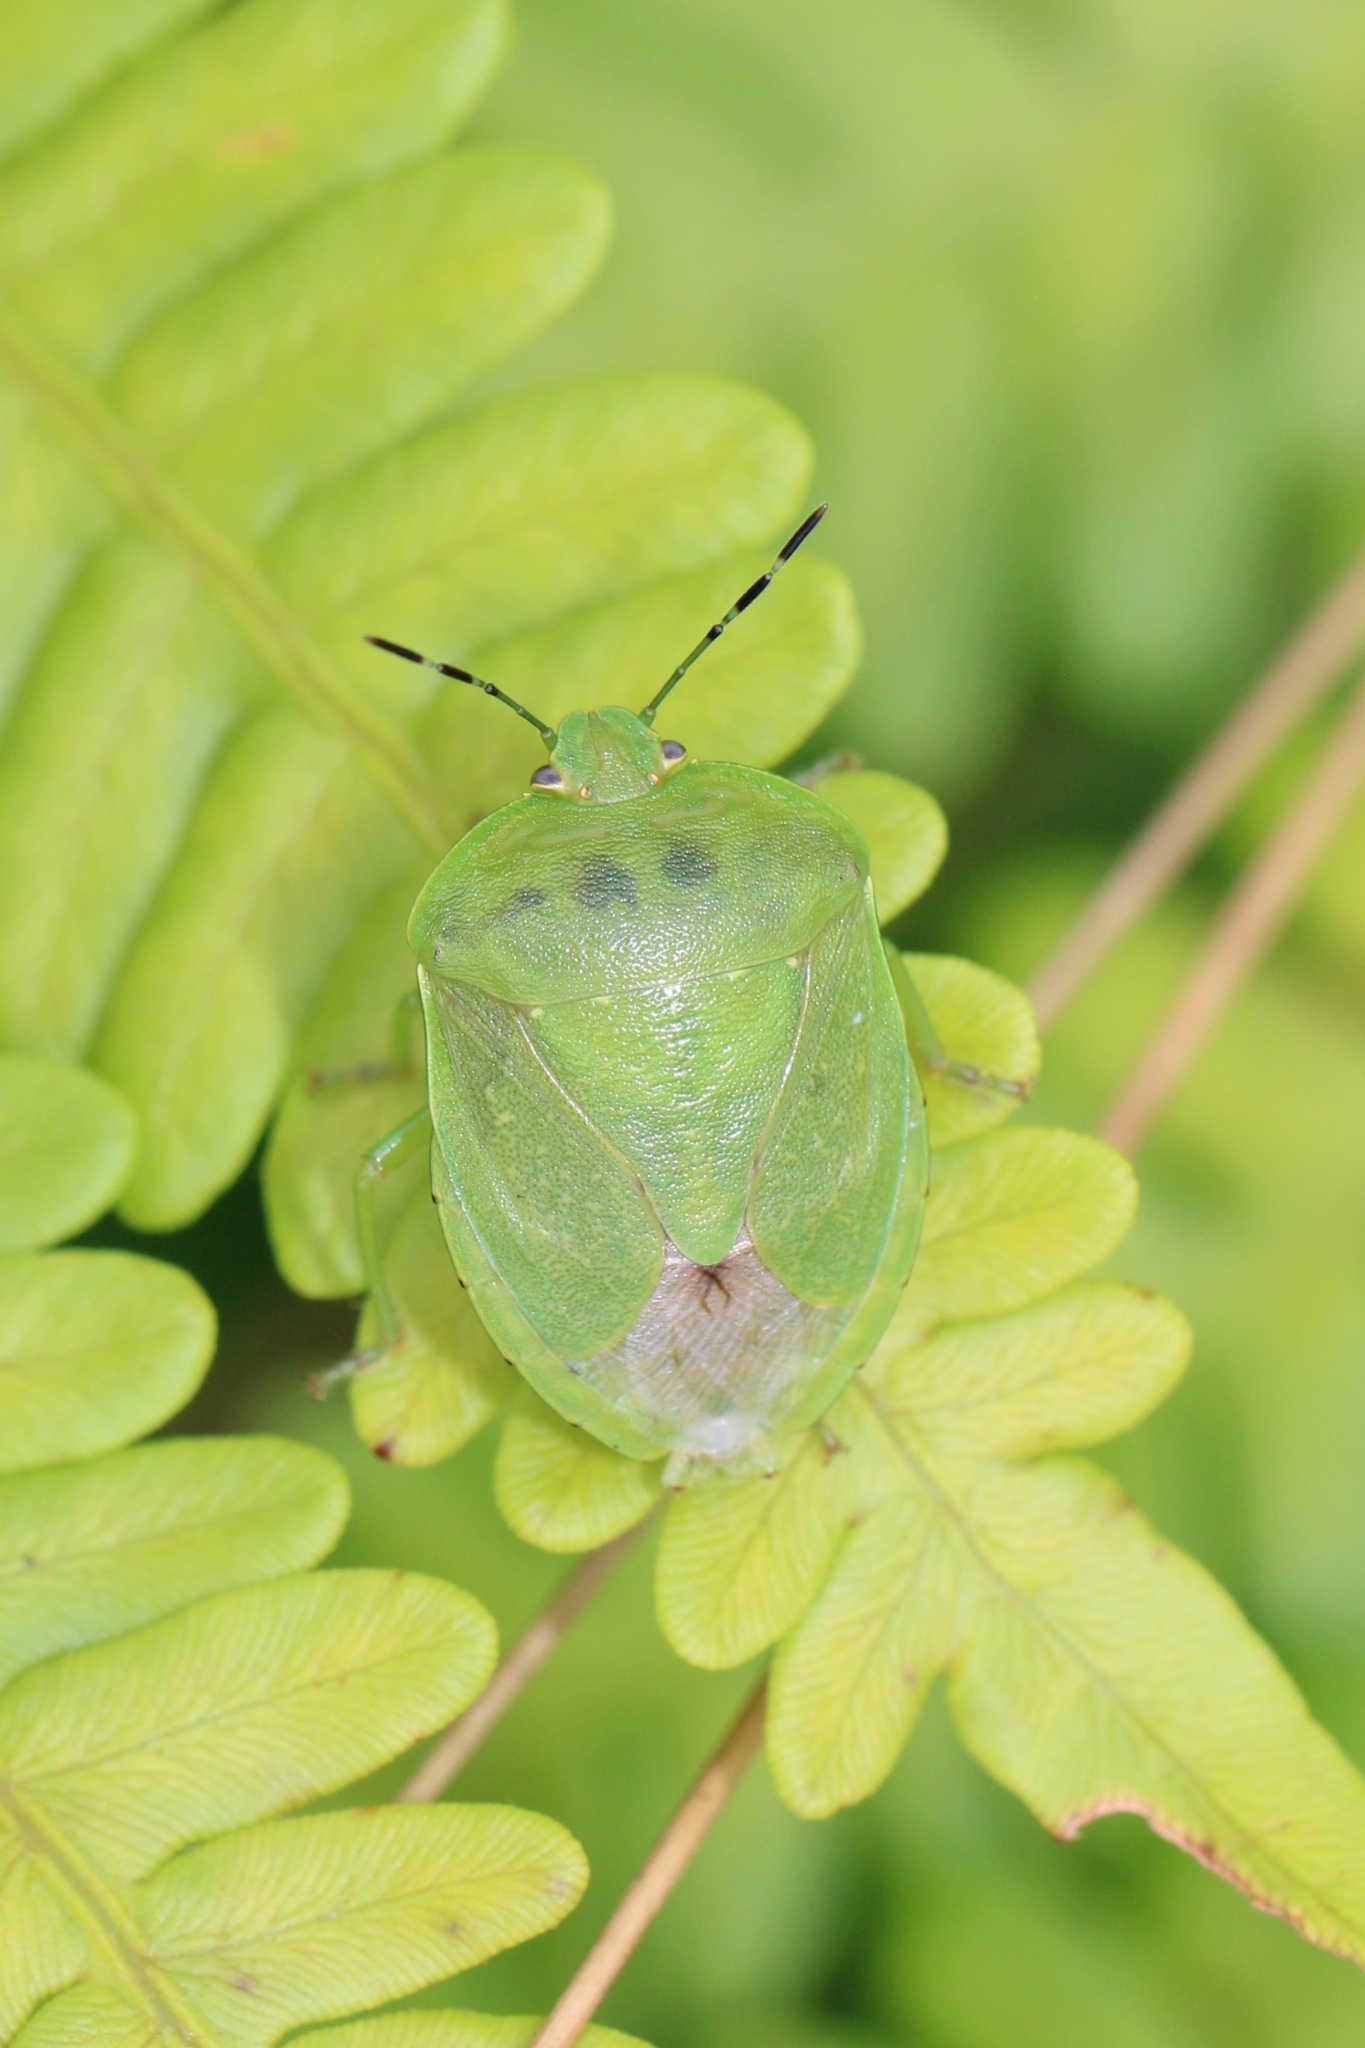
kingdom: Animalia
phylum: Arthropoda
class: Insecta
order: Hemiptera
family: Pentatomidae
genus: Chinavia
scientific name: Chinavia
